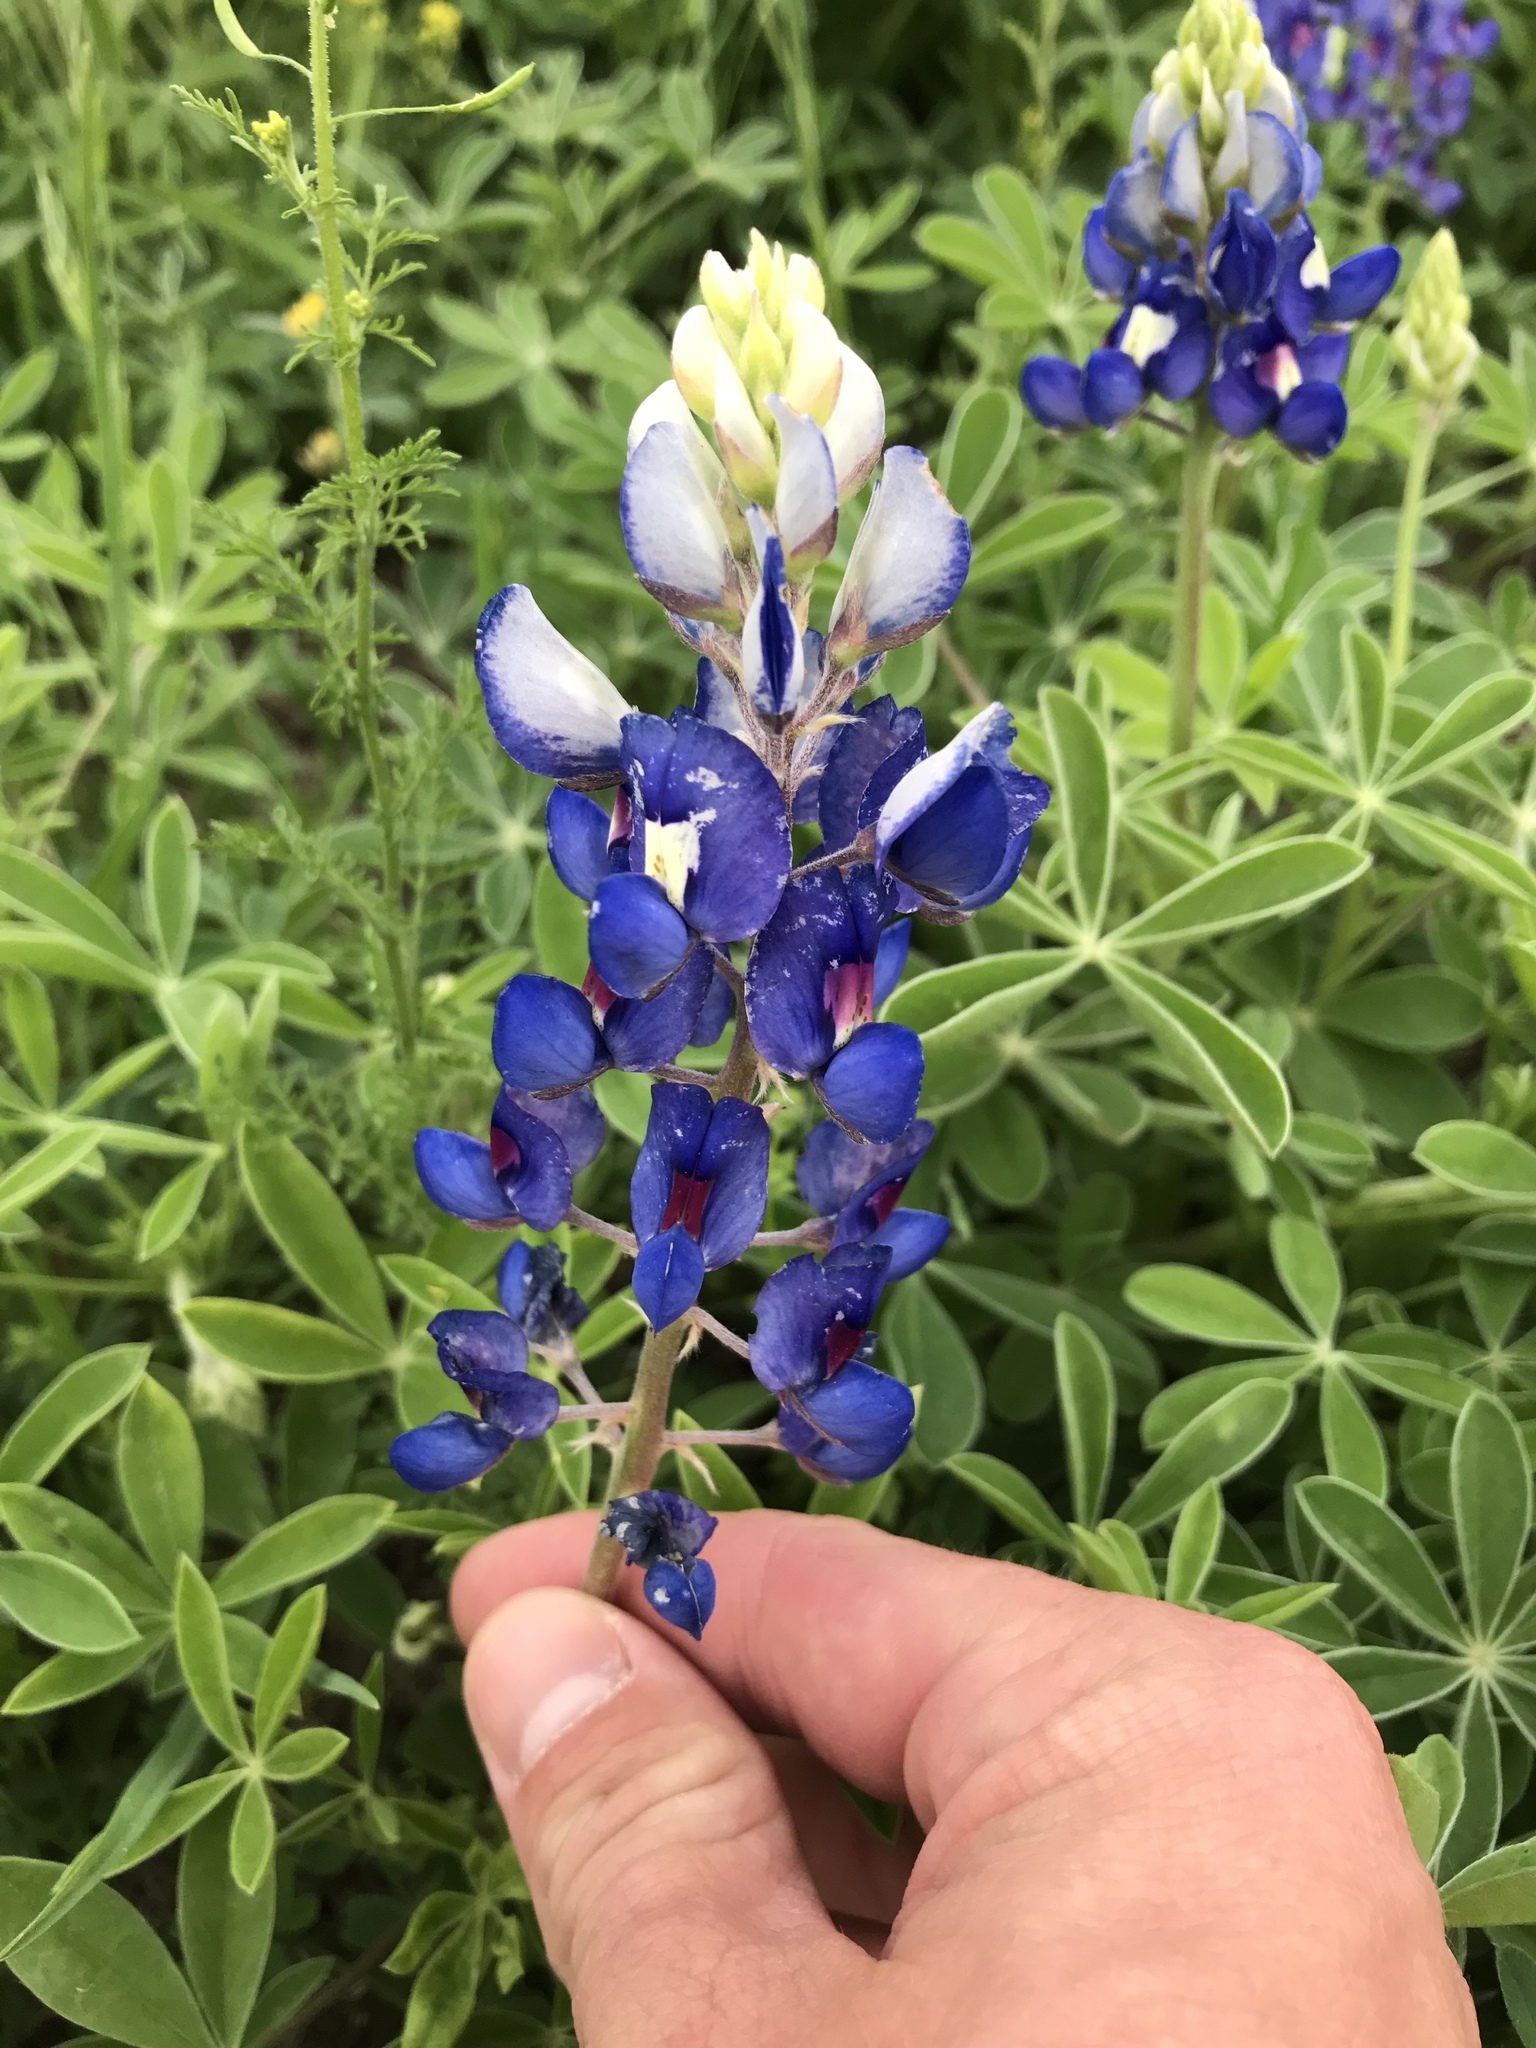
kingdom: Plantae
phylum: Tracheophyta
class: Magnoliopsida
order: Fabales
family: Fabaceae
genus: Lupinus
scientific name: Lupinus texensis
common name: Texas bluebonnet
